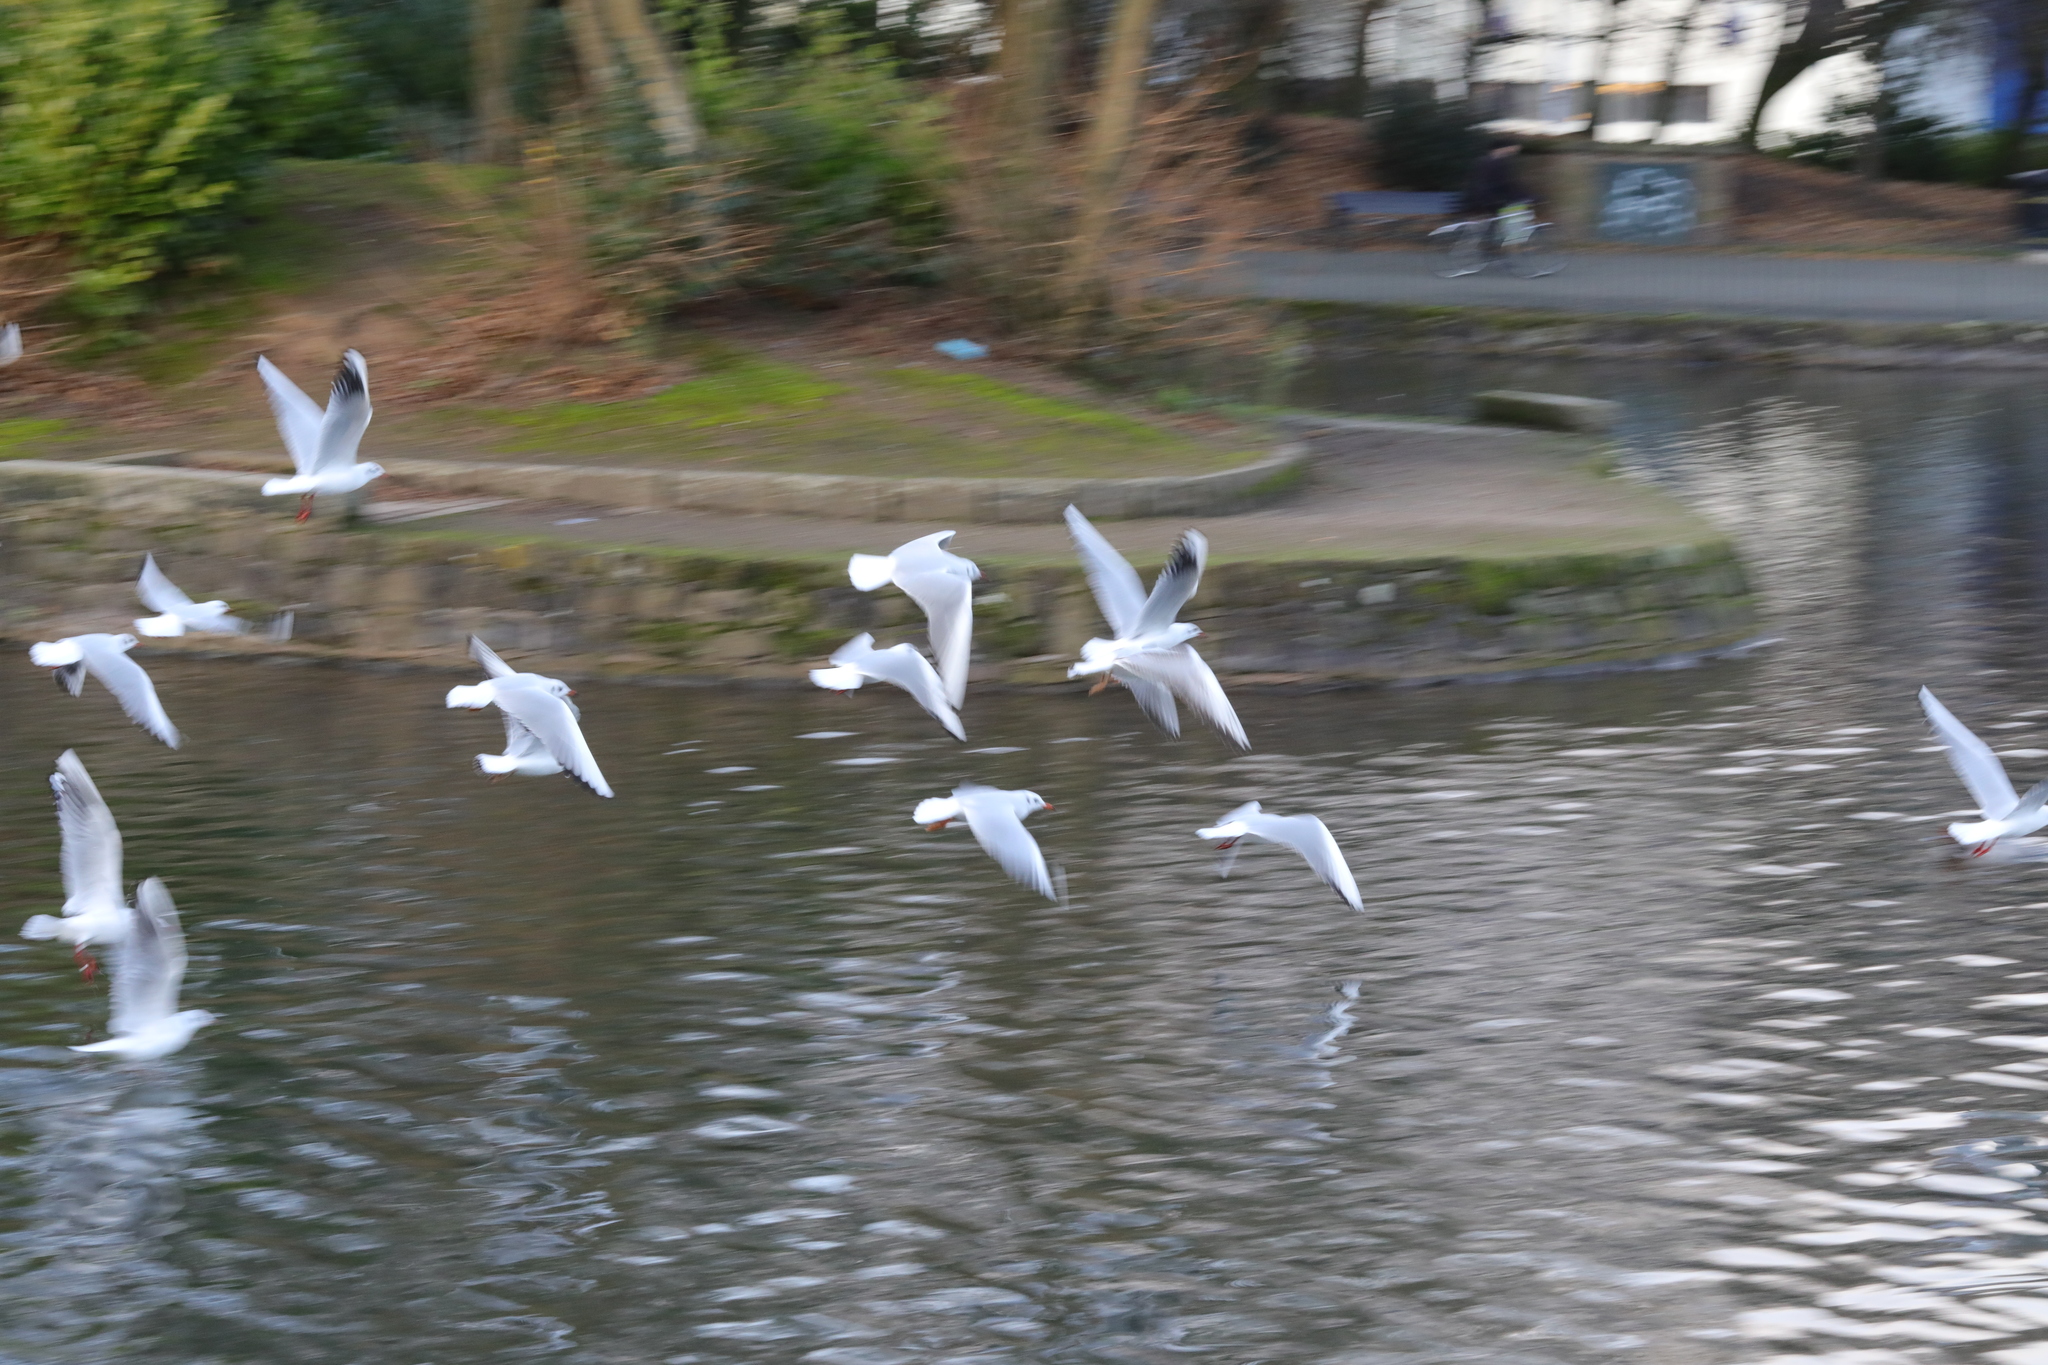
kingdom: Animalia
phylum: Chordata
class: Aves
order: Charadriiformes
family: Laridae
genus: Chroicocephalus
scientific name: Chroicocephalus ridibundus
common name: Black-headed gull
